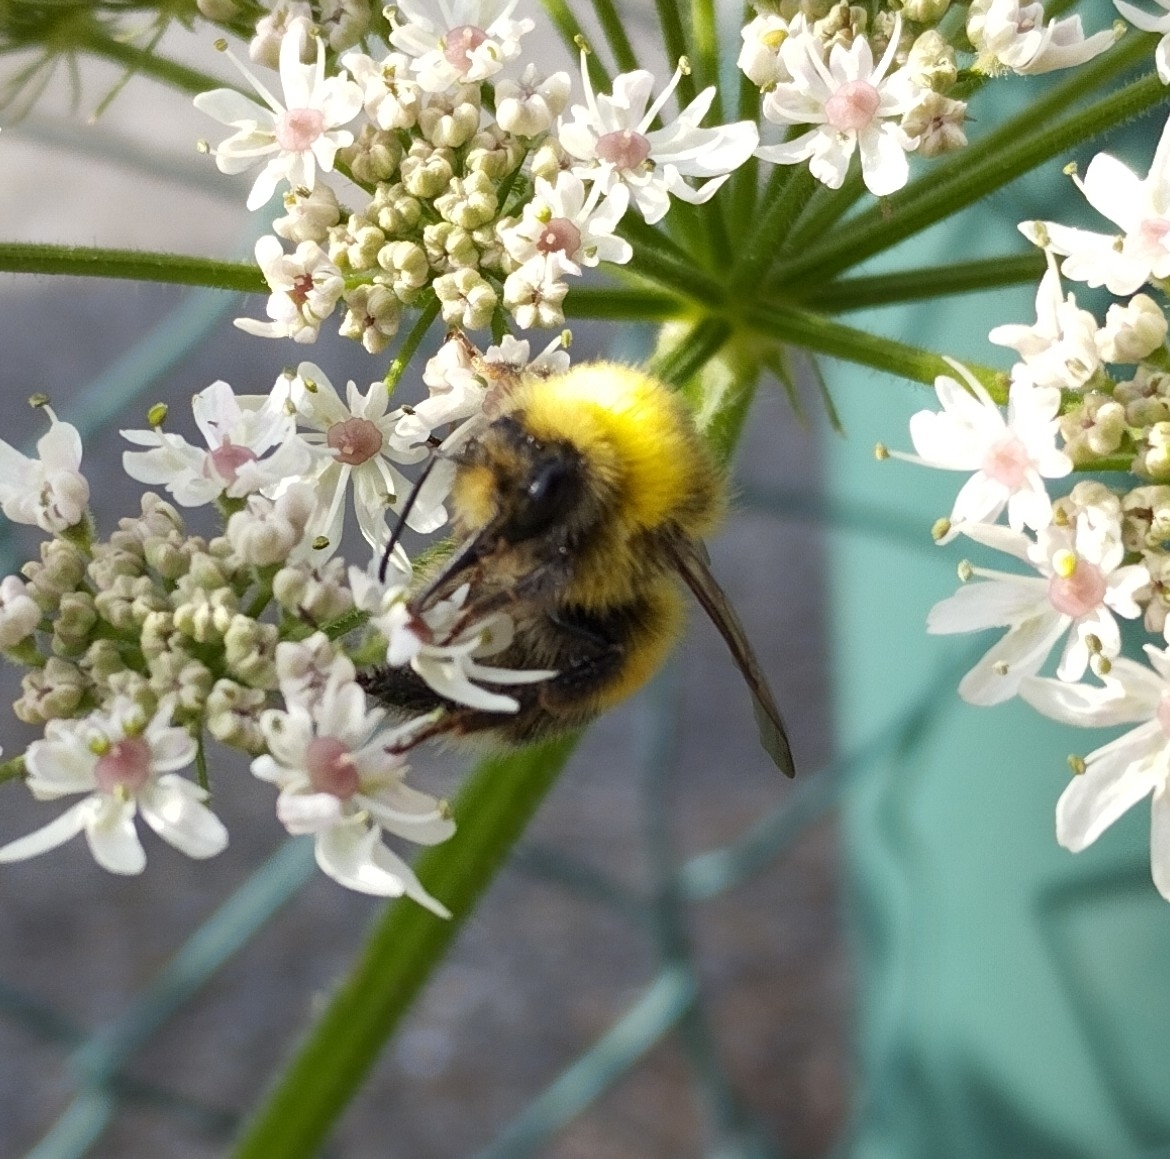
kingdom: Animalia
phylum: Arthropoda
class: Insecta
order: Hymenoptera
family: Apidae
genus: Bombus
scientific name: Bombus lucorum
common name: White-tailed bumblebee
